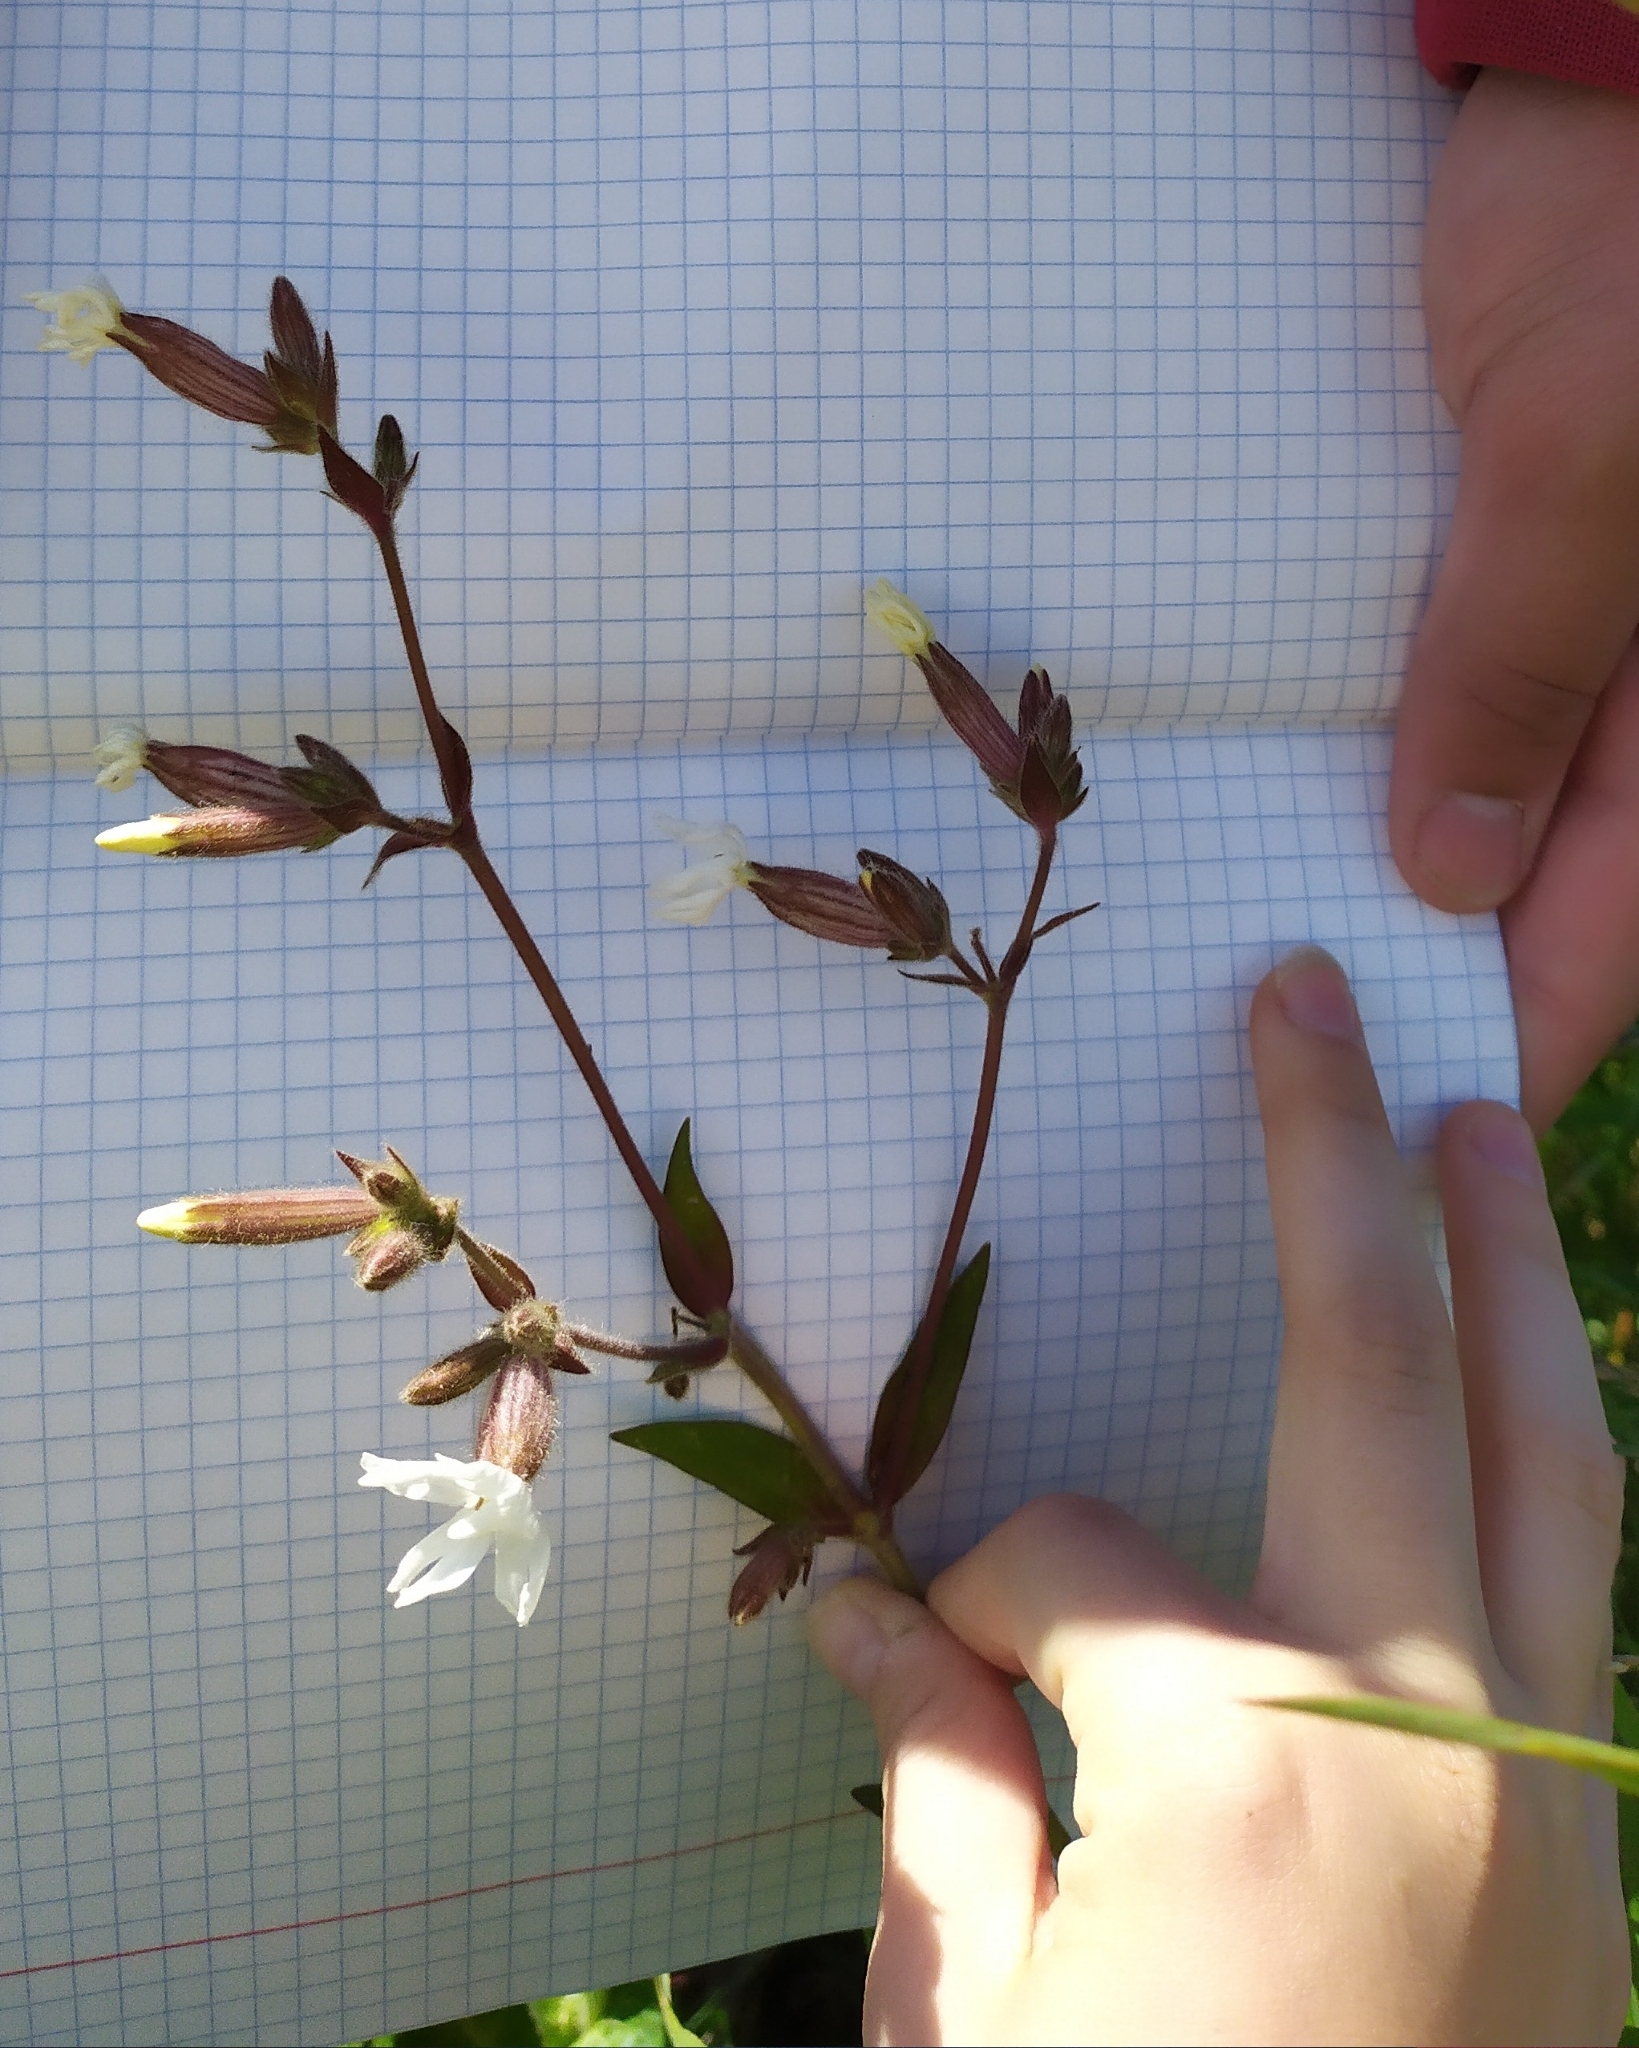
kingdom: Plantae
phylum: Tracheophyta
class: Magnoliopsida
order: Caryophyllales
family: Caryophyllaceae
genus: Silene
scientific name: Silene latifolia
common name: White campion
